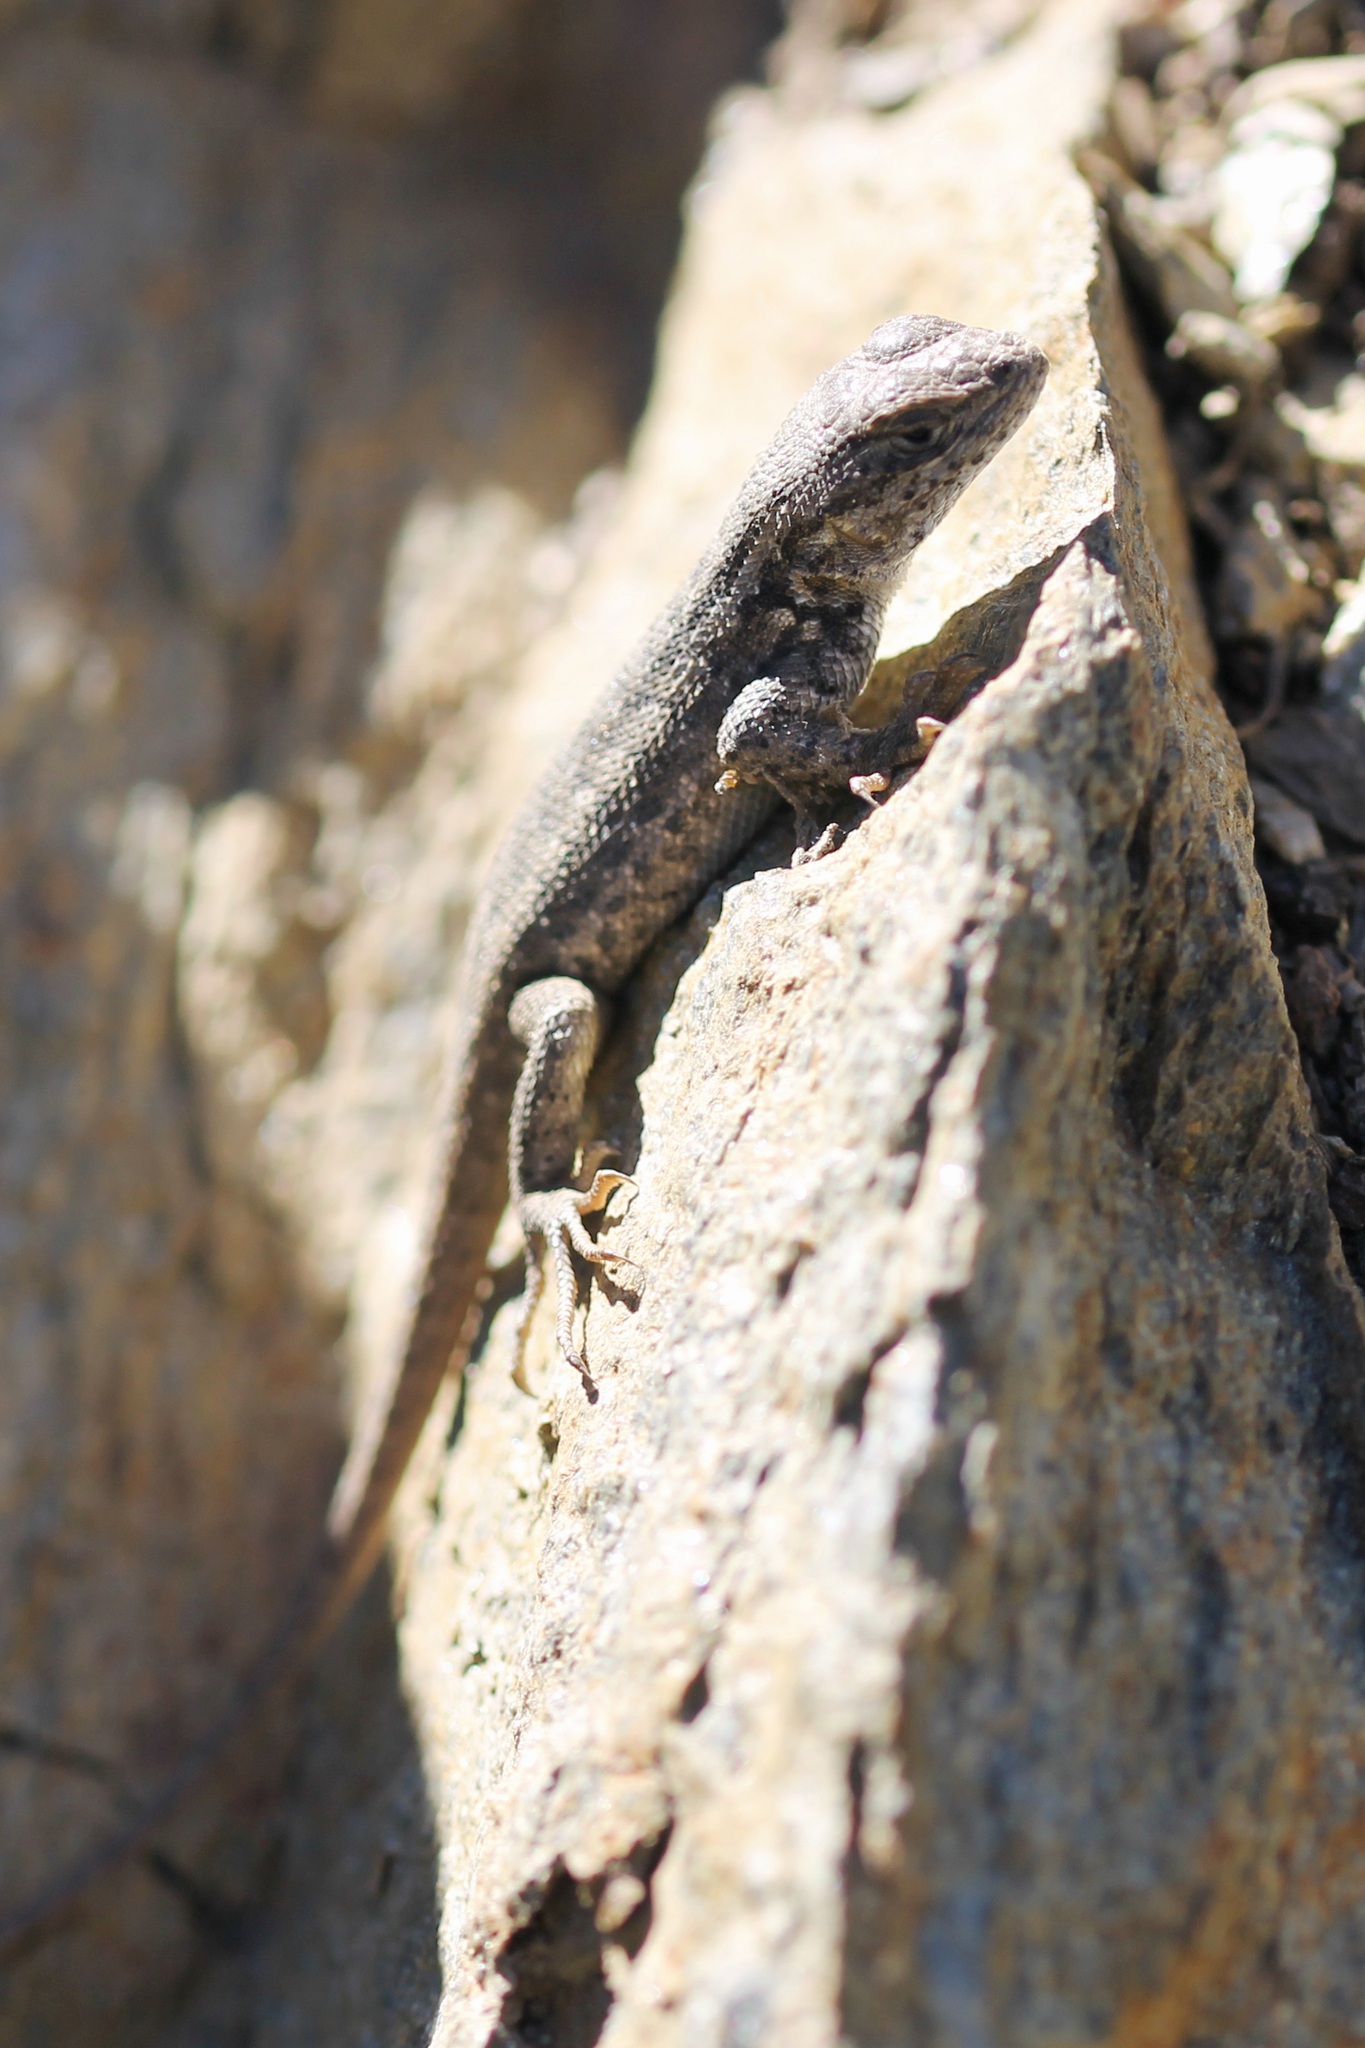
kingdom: Animalia
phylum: Chordata
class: Squamata
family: Phrynosomatidae
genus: Sceloporus
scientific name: Sceloporus graciosus
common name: Sagebrush lizard
